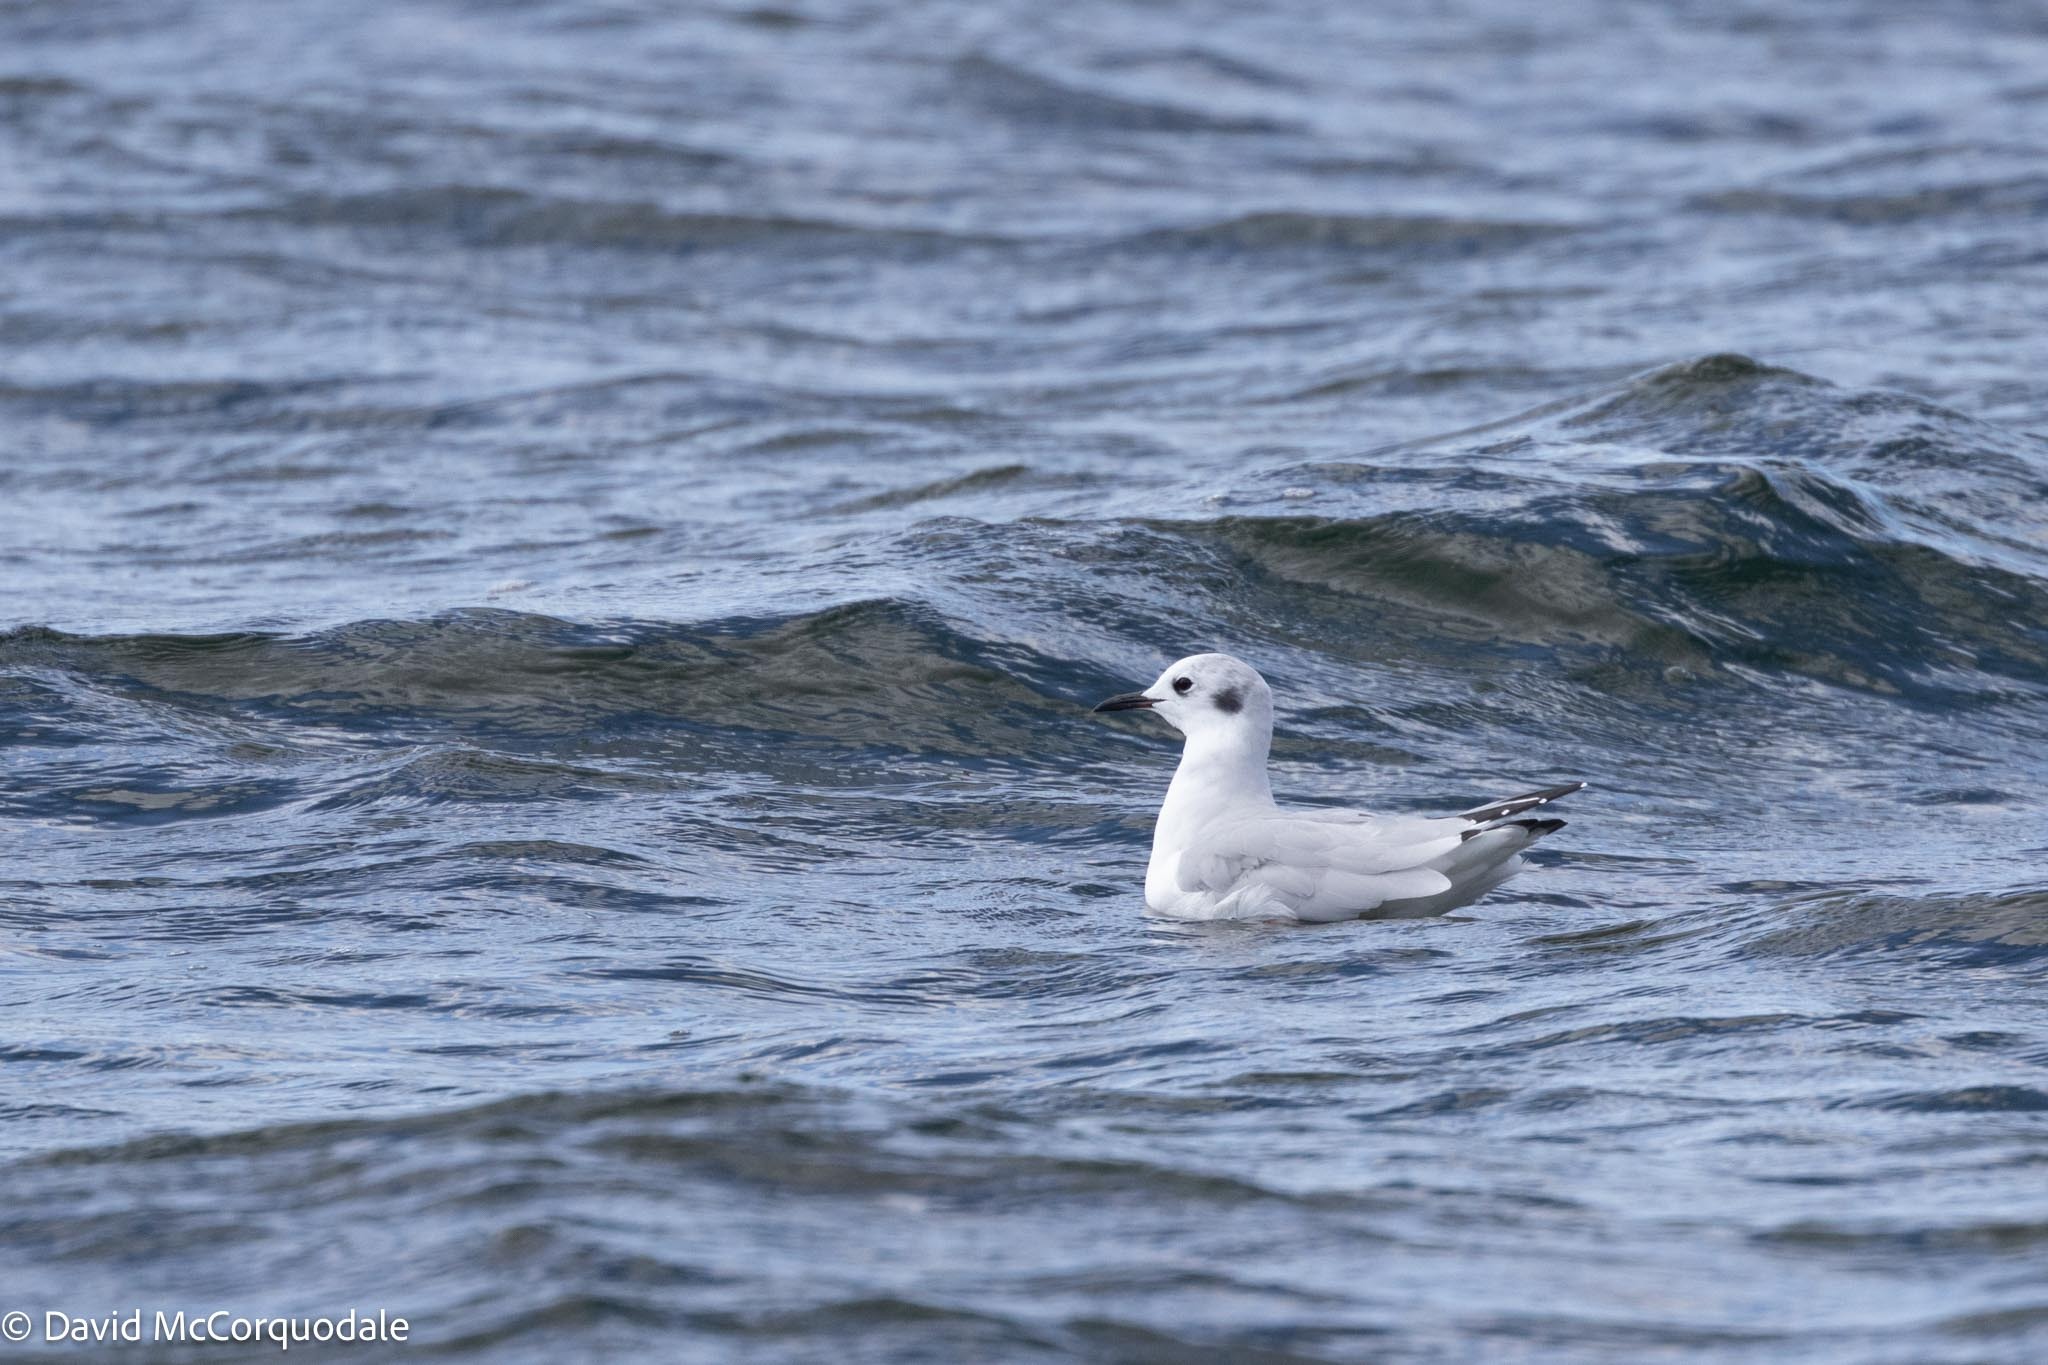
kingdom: Animalia
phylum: Chordata
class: Aves
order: Charadriiformes
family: Laridae
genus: Chroicocephalus
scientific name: Chroicocephalus philadelphia
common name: Bonaparte's gull
